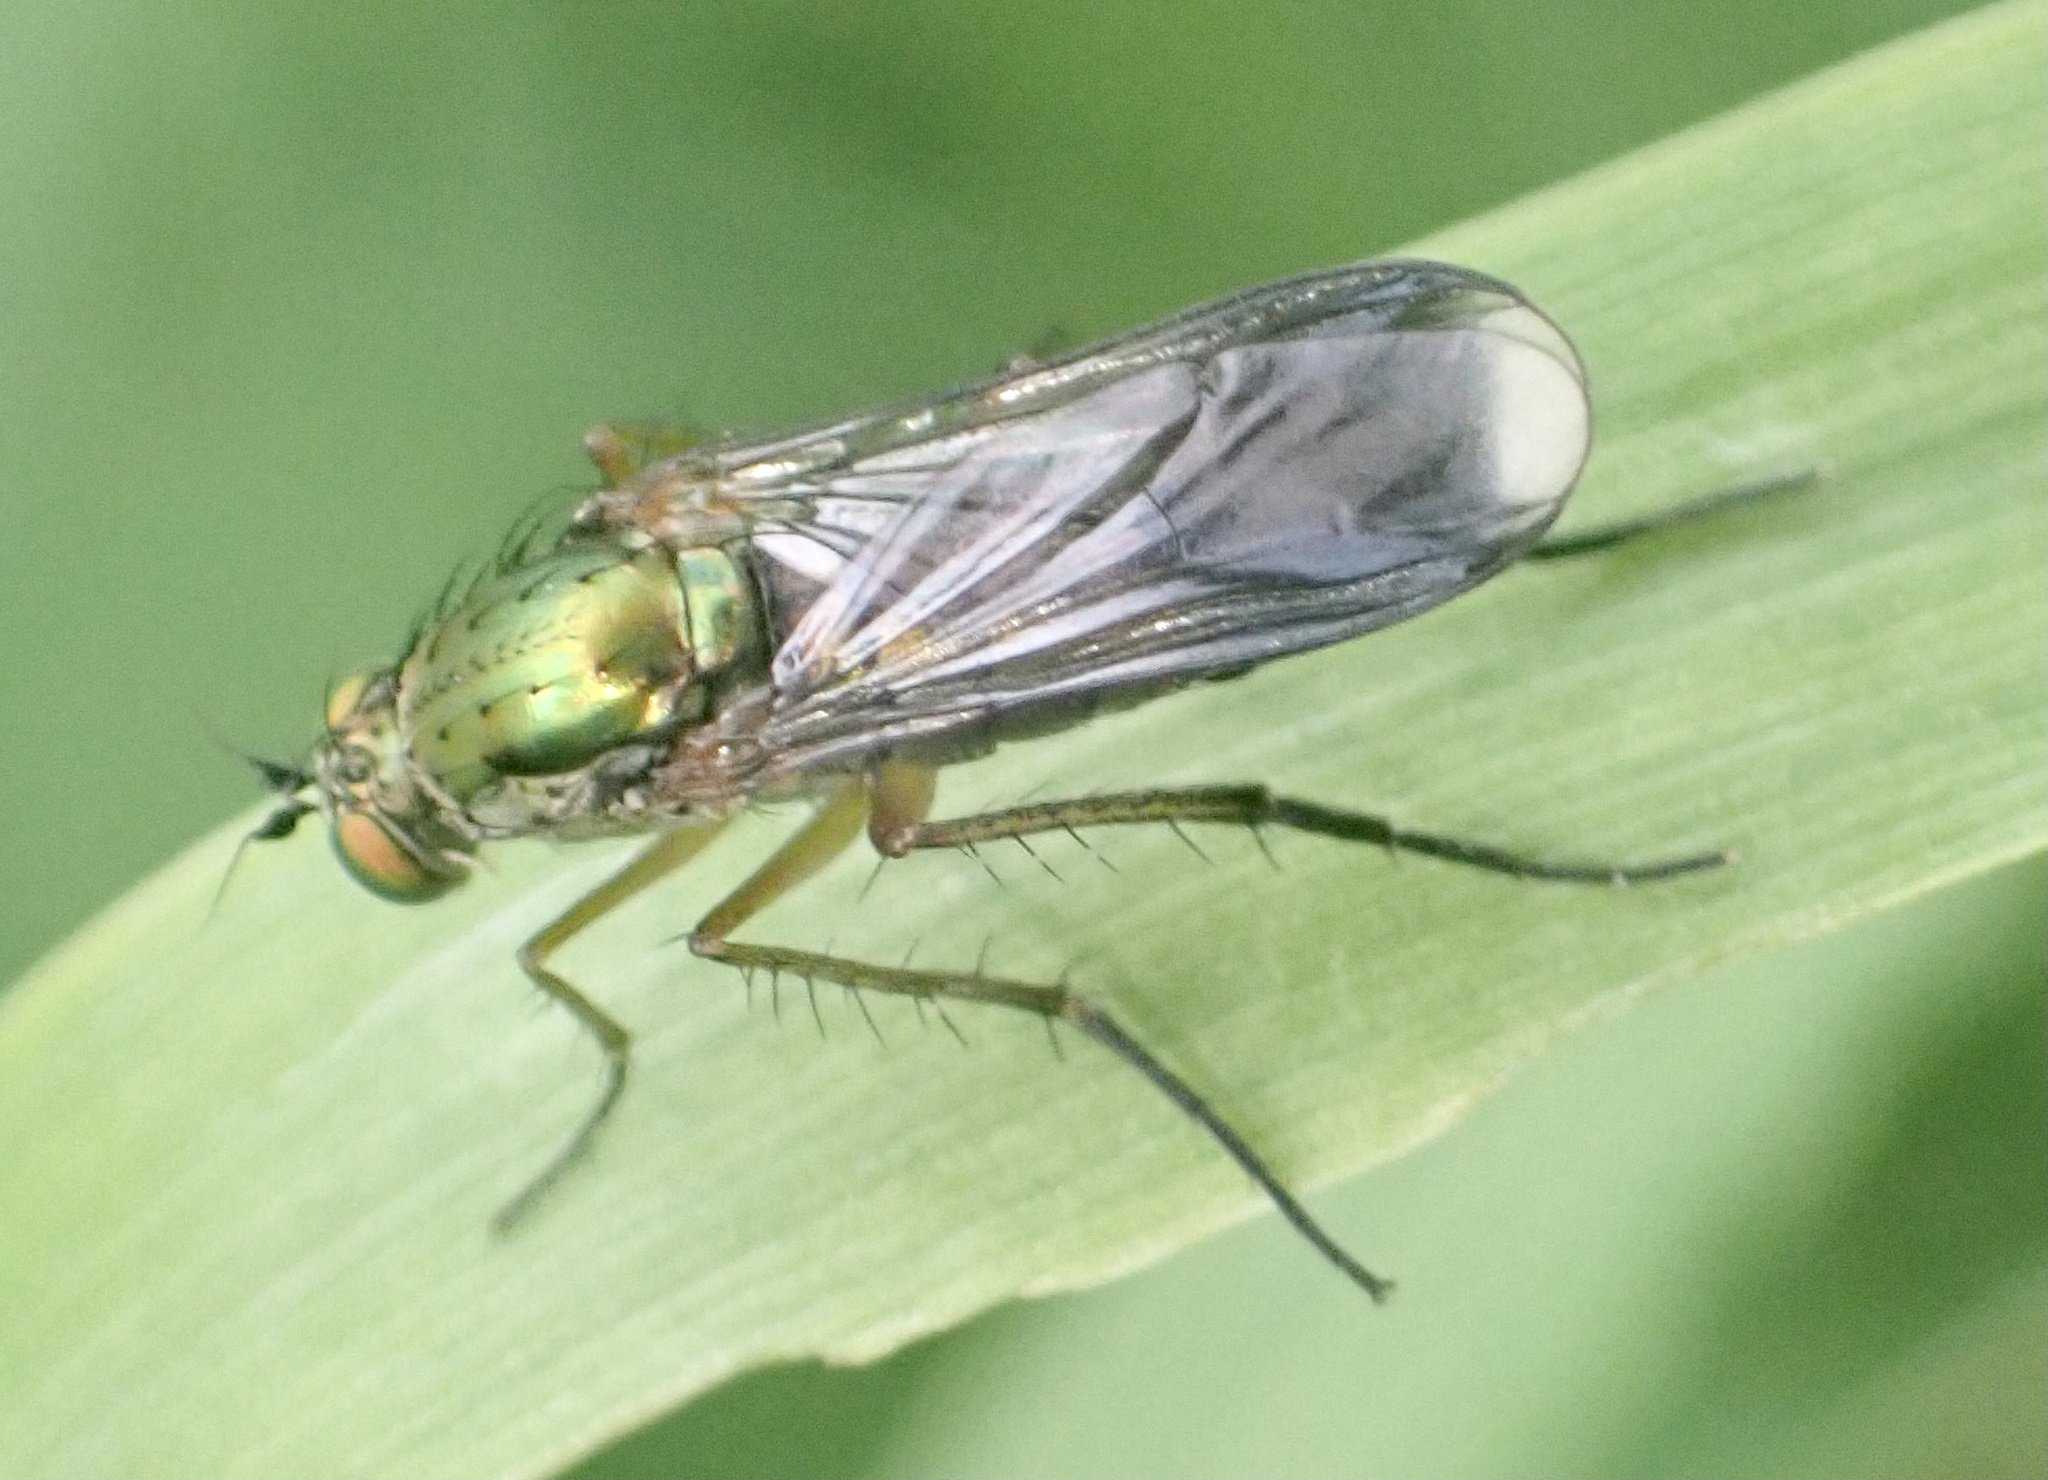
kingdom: Animalia
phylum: Arthropoda
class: Insecta
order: Diptera
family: Dolichopodidae
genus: Poecilobothrus
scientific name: Poecilobothrus nobilitatus
